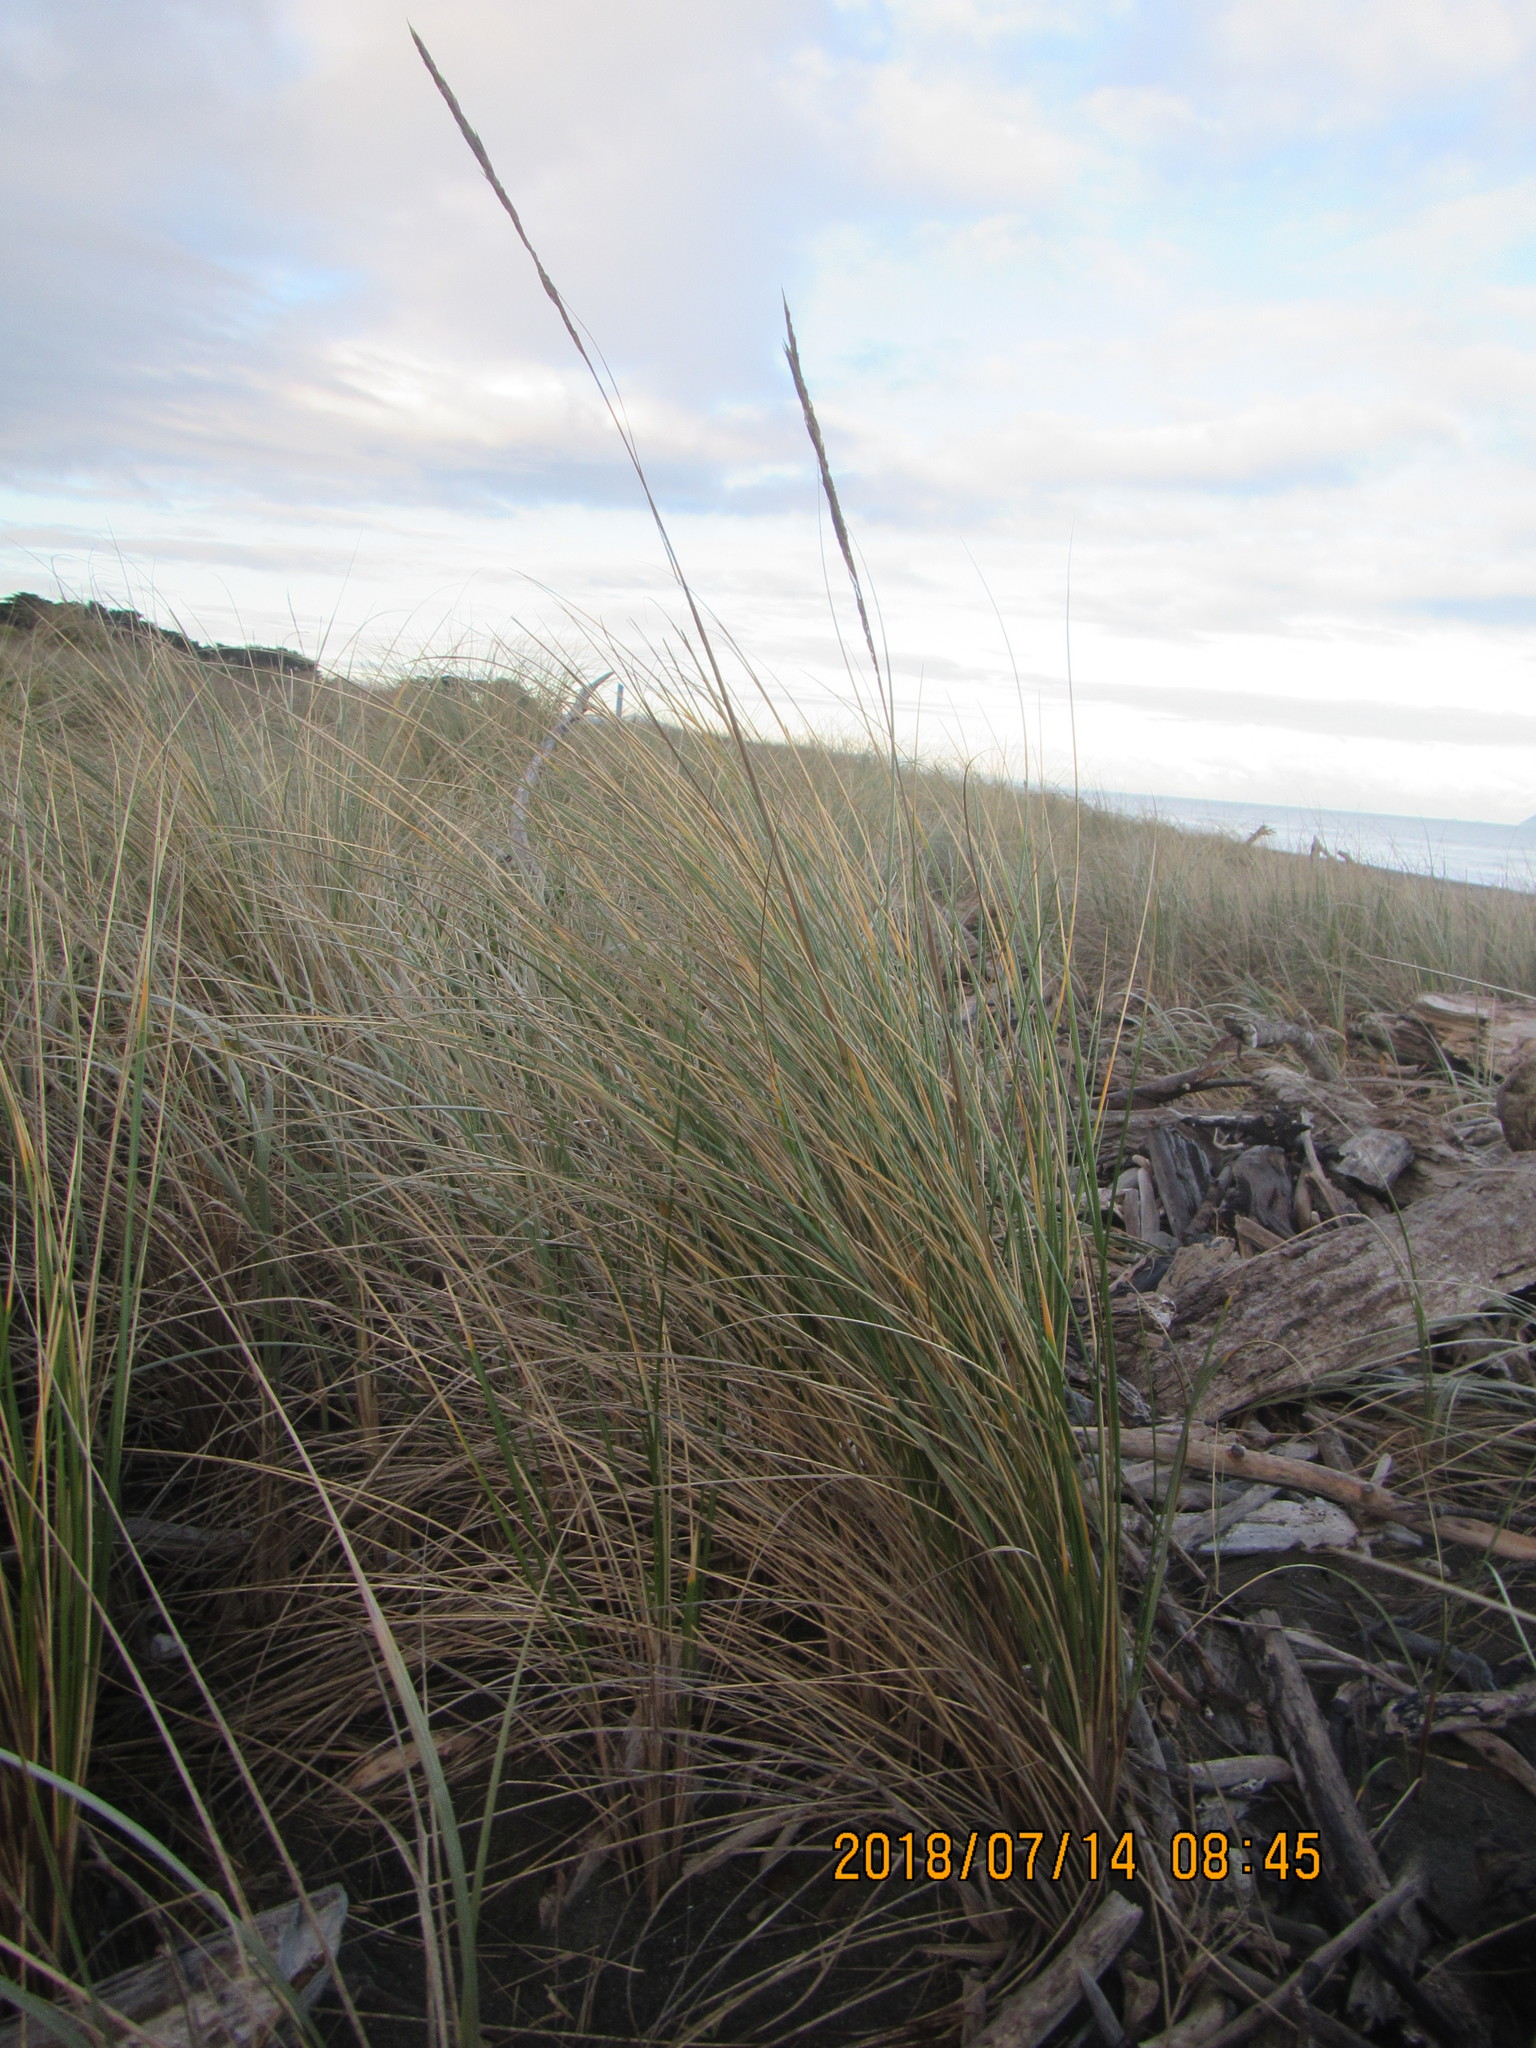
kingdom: Plantae
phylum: Tracheophyta
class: Liliopsida
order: Poales
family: Poaceae
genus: Calamagrostis
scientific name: Calamagrostis arenaria
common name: European beachgrass
